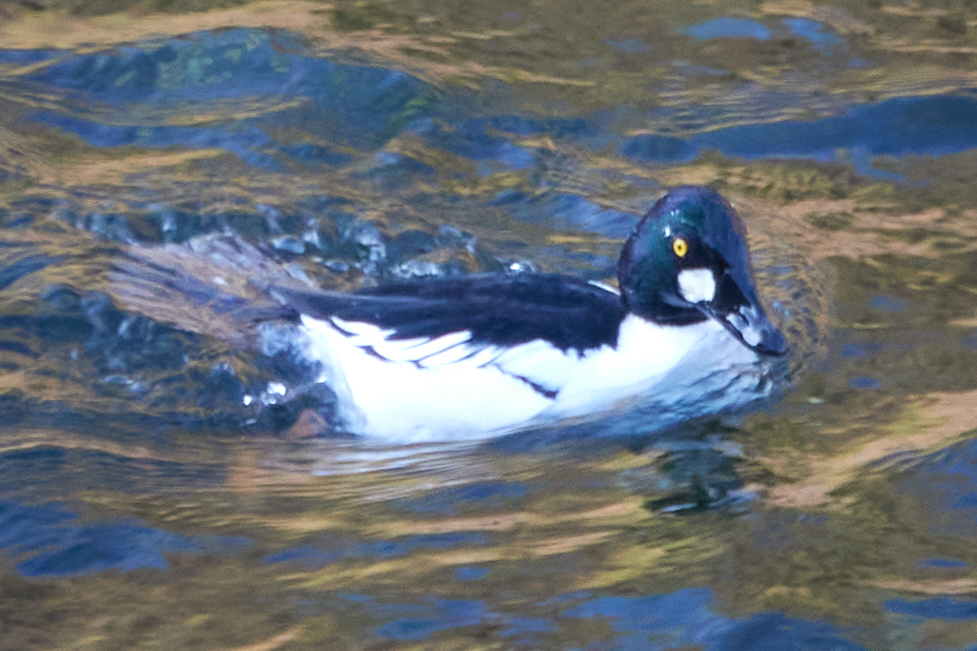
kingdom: Animalia
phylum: Chordata
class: Aves
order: Anseriformes
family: Anatidae
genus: Bucephala
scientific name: Bucephala clangula
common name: Common goldeneye
